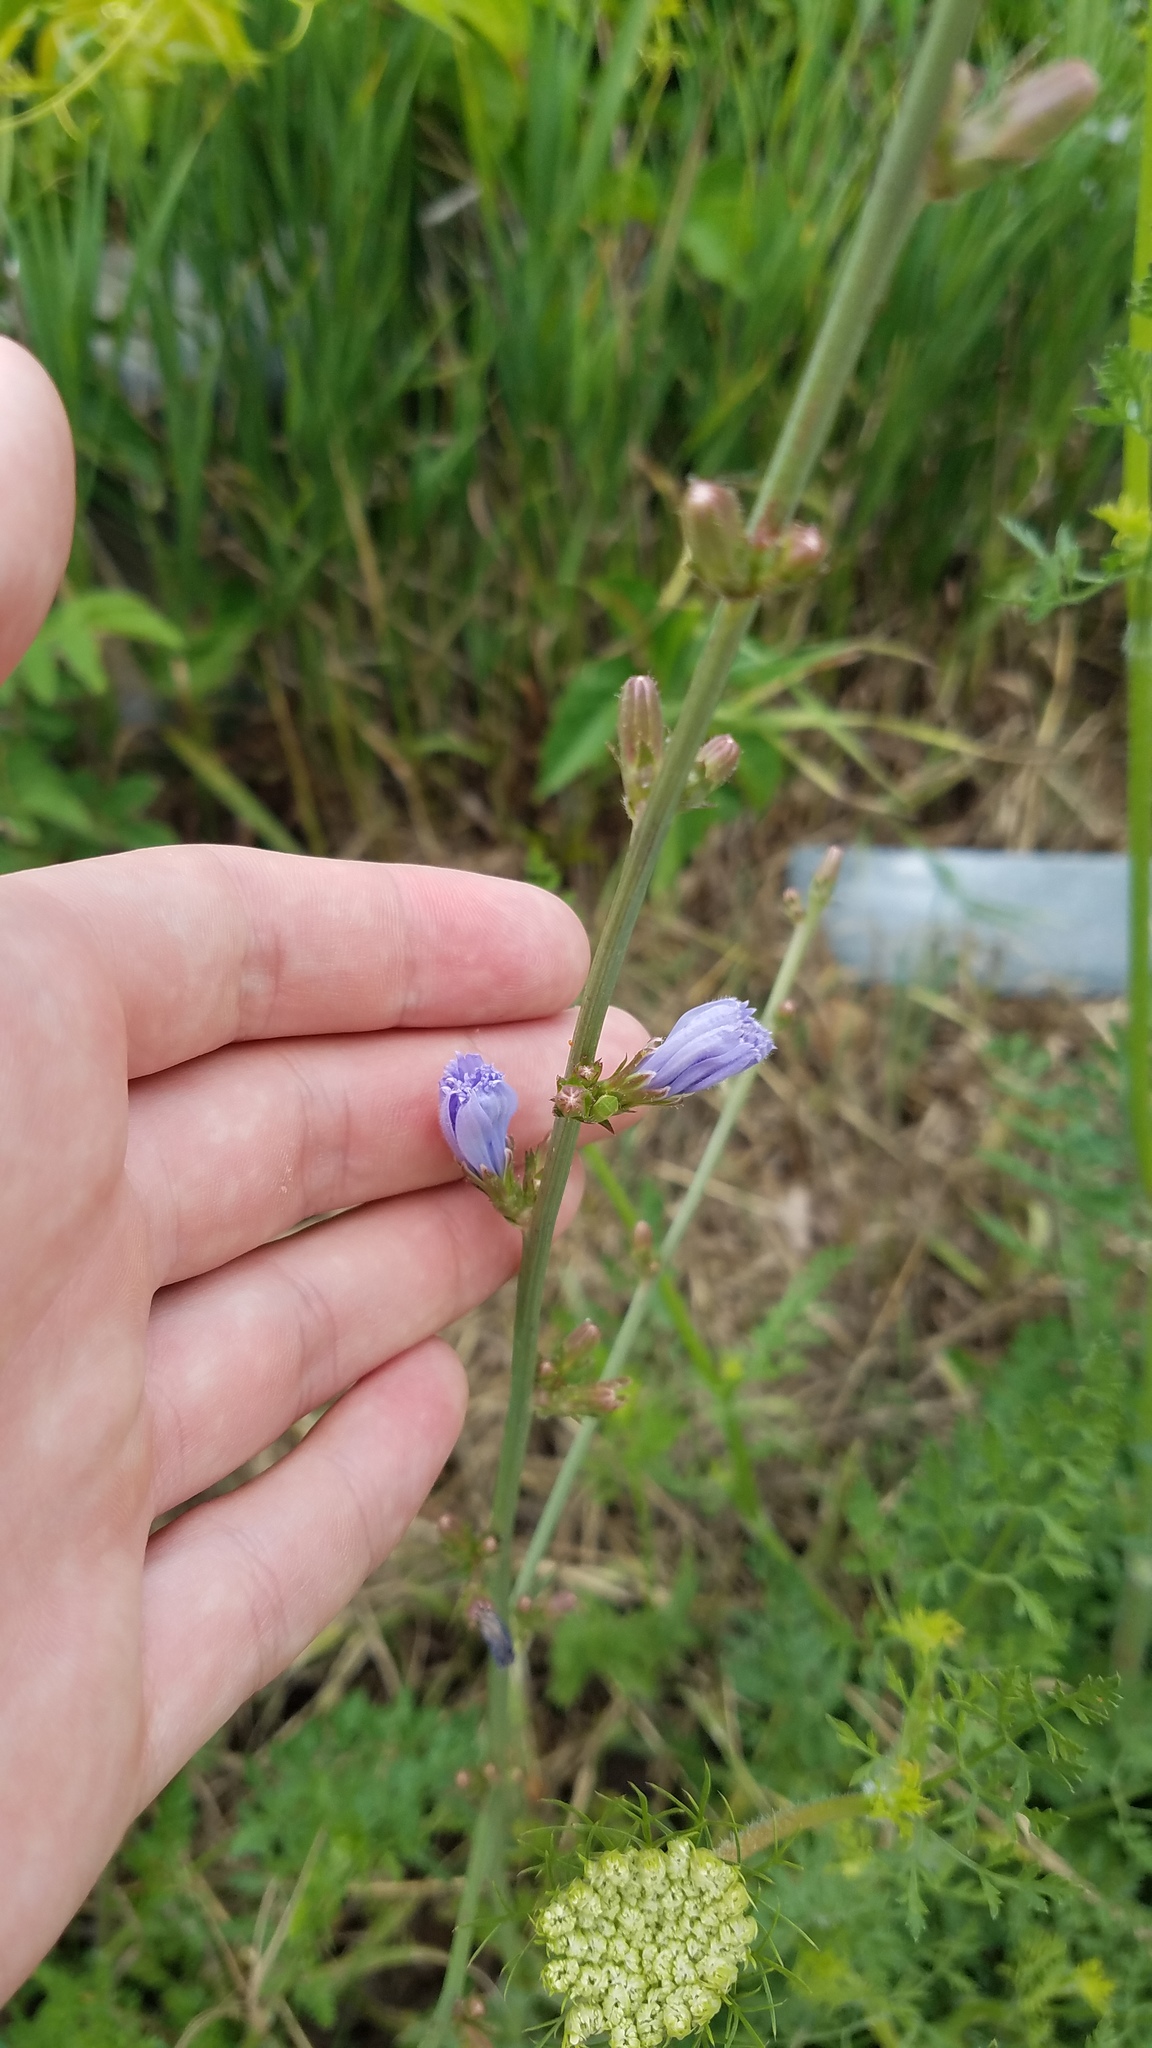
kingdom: Plantae
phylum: Tracheophyta
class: Magnoliopsida
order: Asterales
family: Asteraceae
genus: Cichorium
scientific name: Cichorium intybus
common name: Chicory
